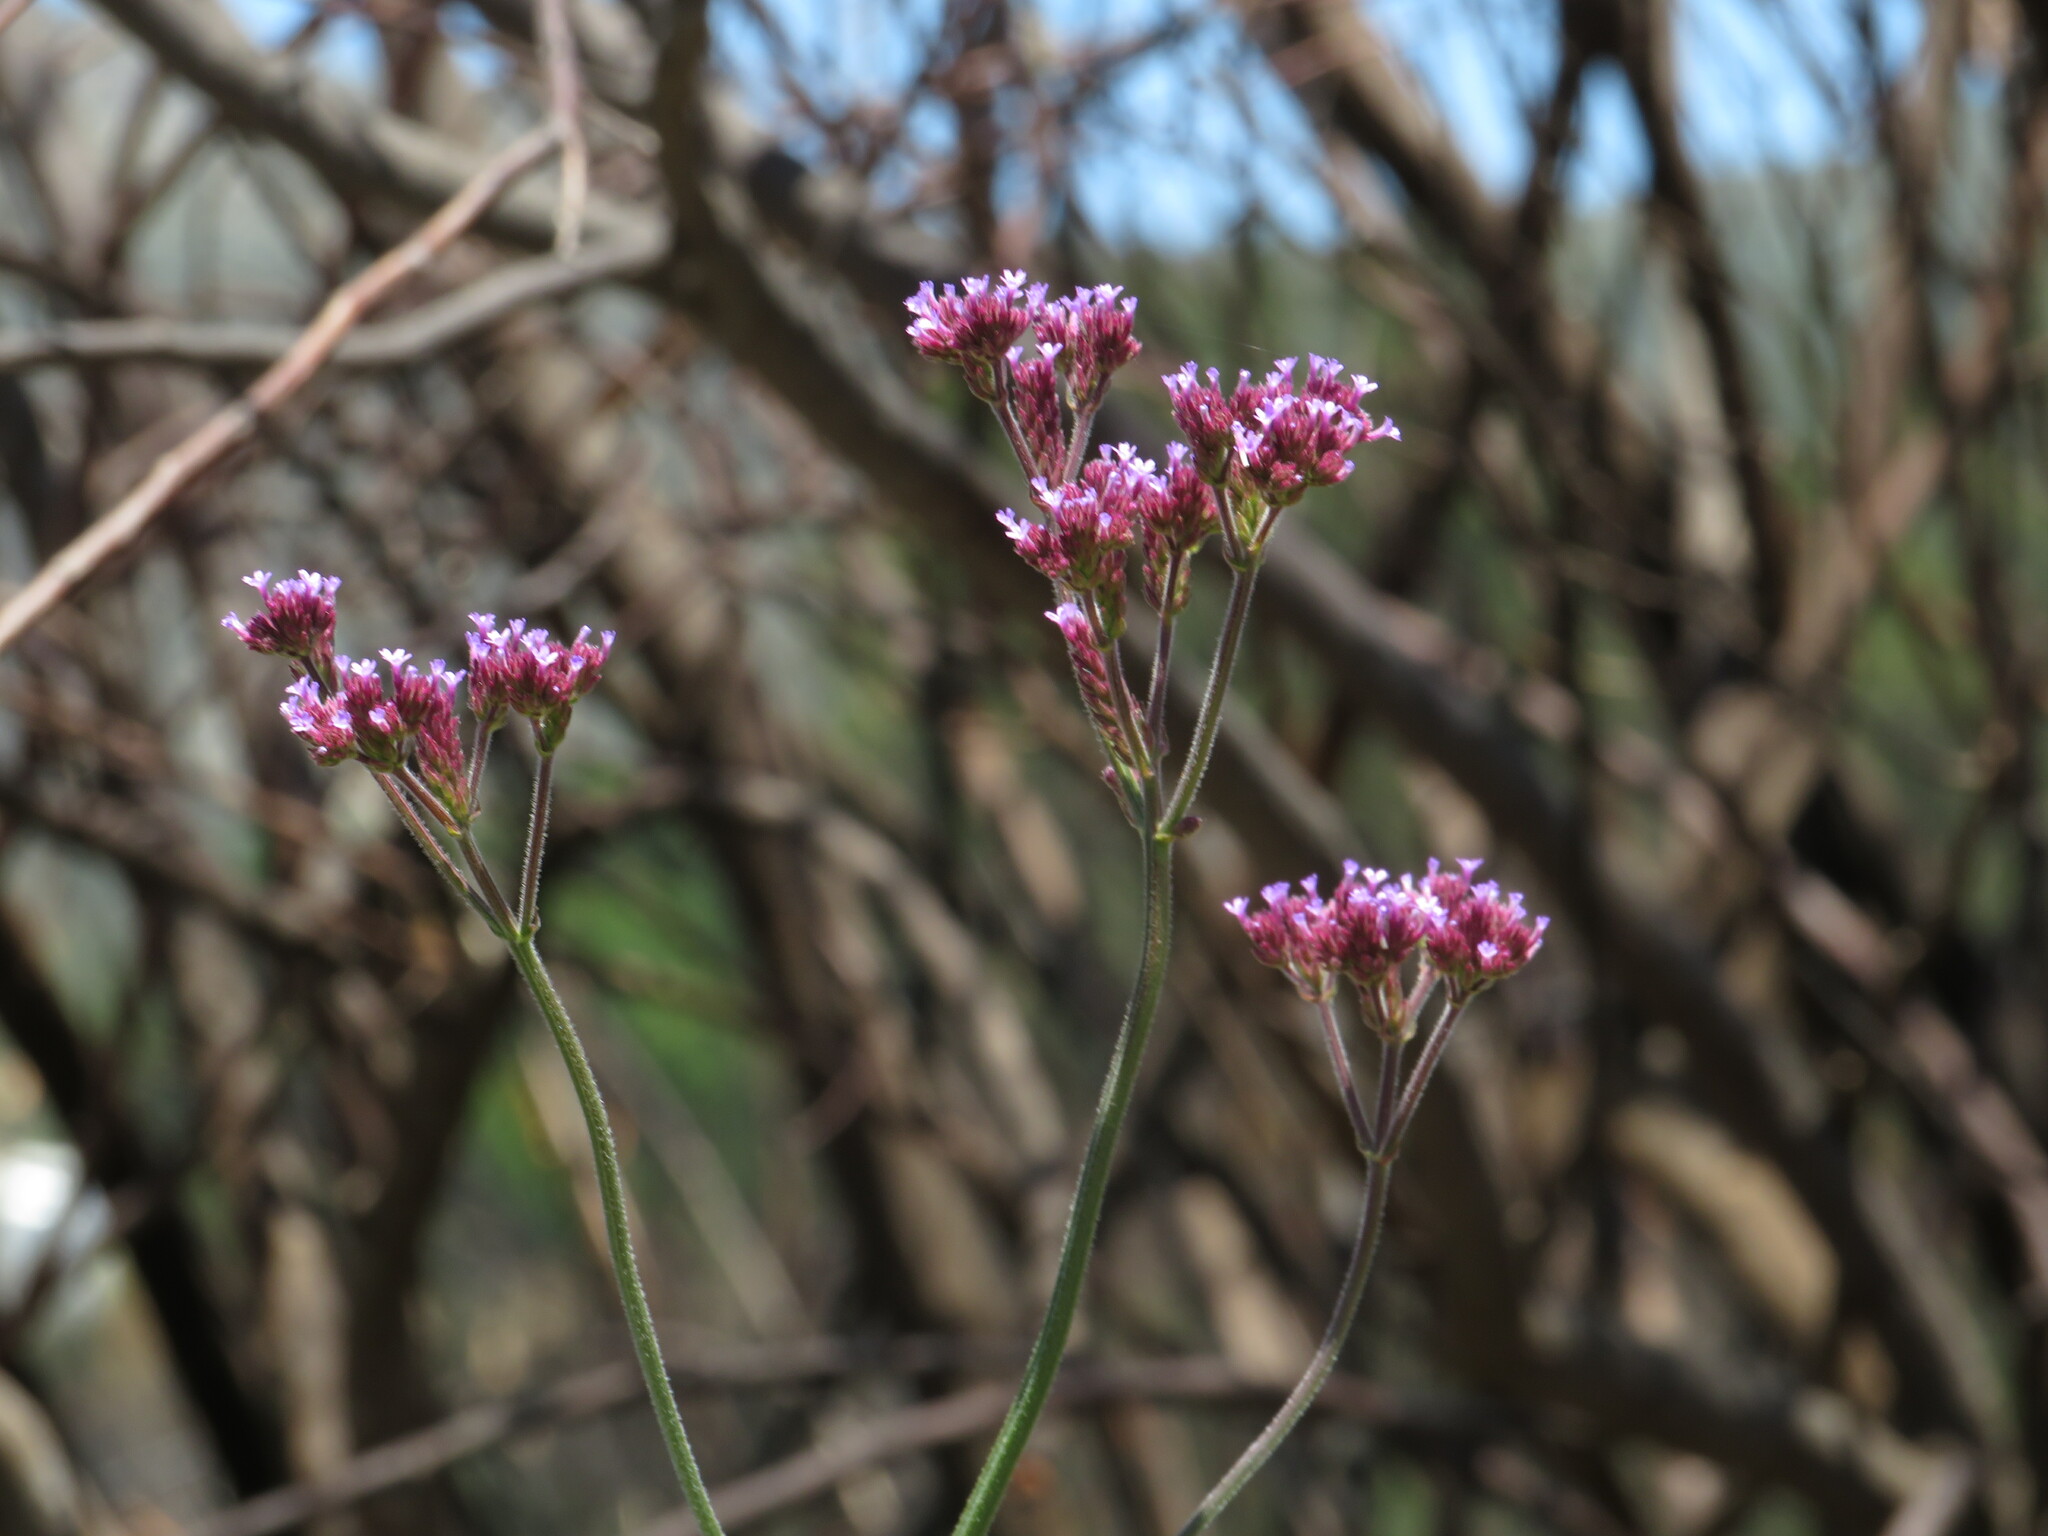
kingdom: Plantae
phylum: Tracheophyta
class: Magnoliopsida
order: Lamiales
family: Verbenaceae
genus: Verbena
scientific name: Verbena bonariensis
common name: Purpletop vervain
